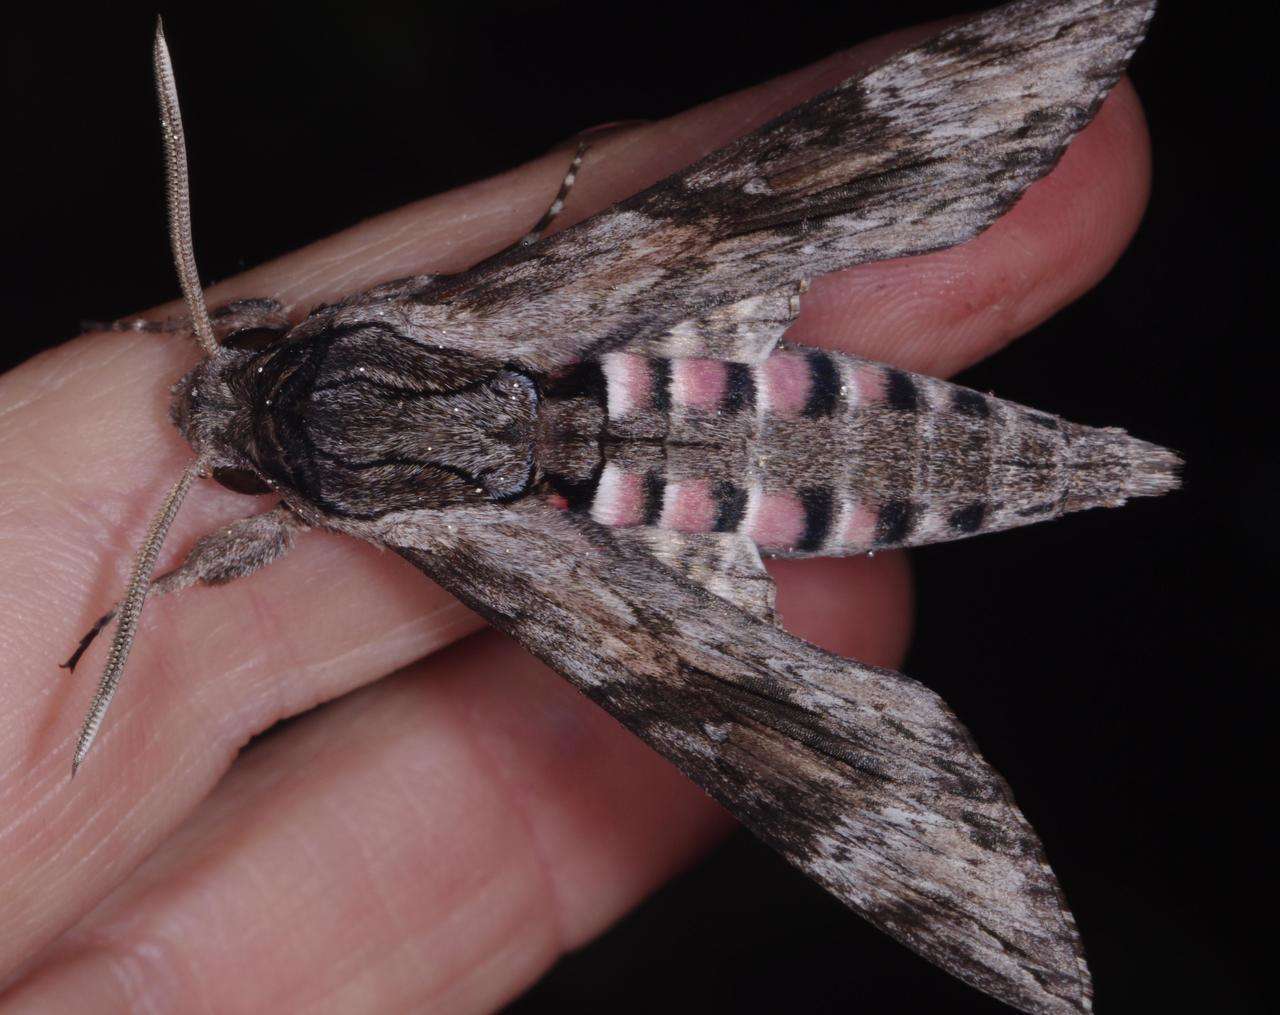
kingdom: Animalia
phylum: Arthropoda
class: Insecta
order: Lepidoptera
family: Sphingidae
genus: Agrius
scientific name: Agrius convolvuli
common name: Convolvulus hawkmoth
